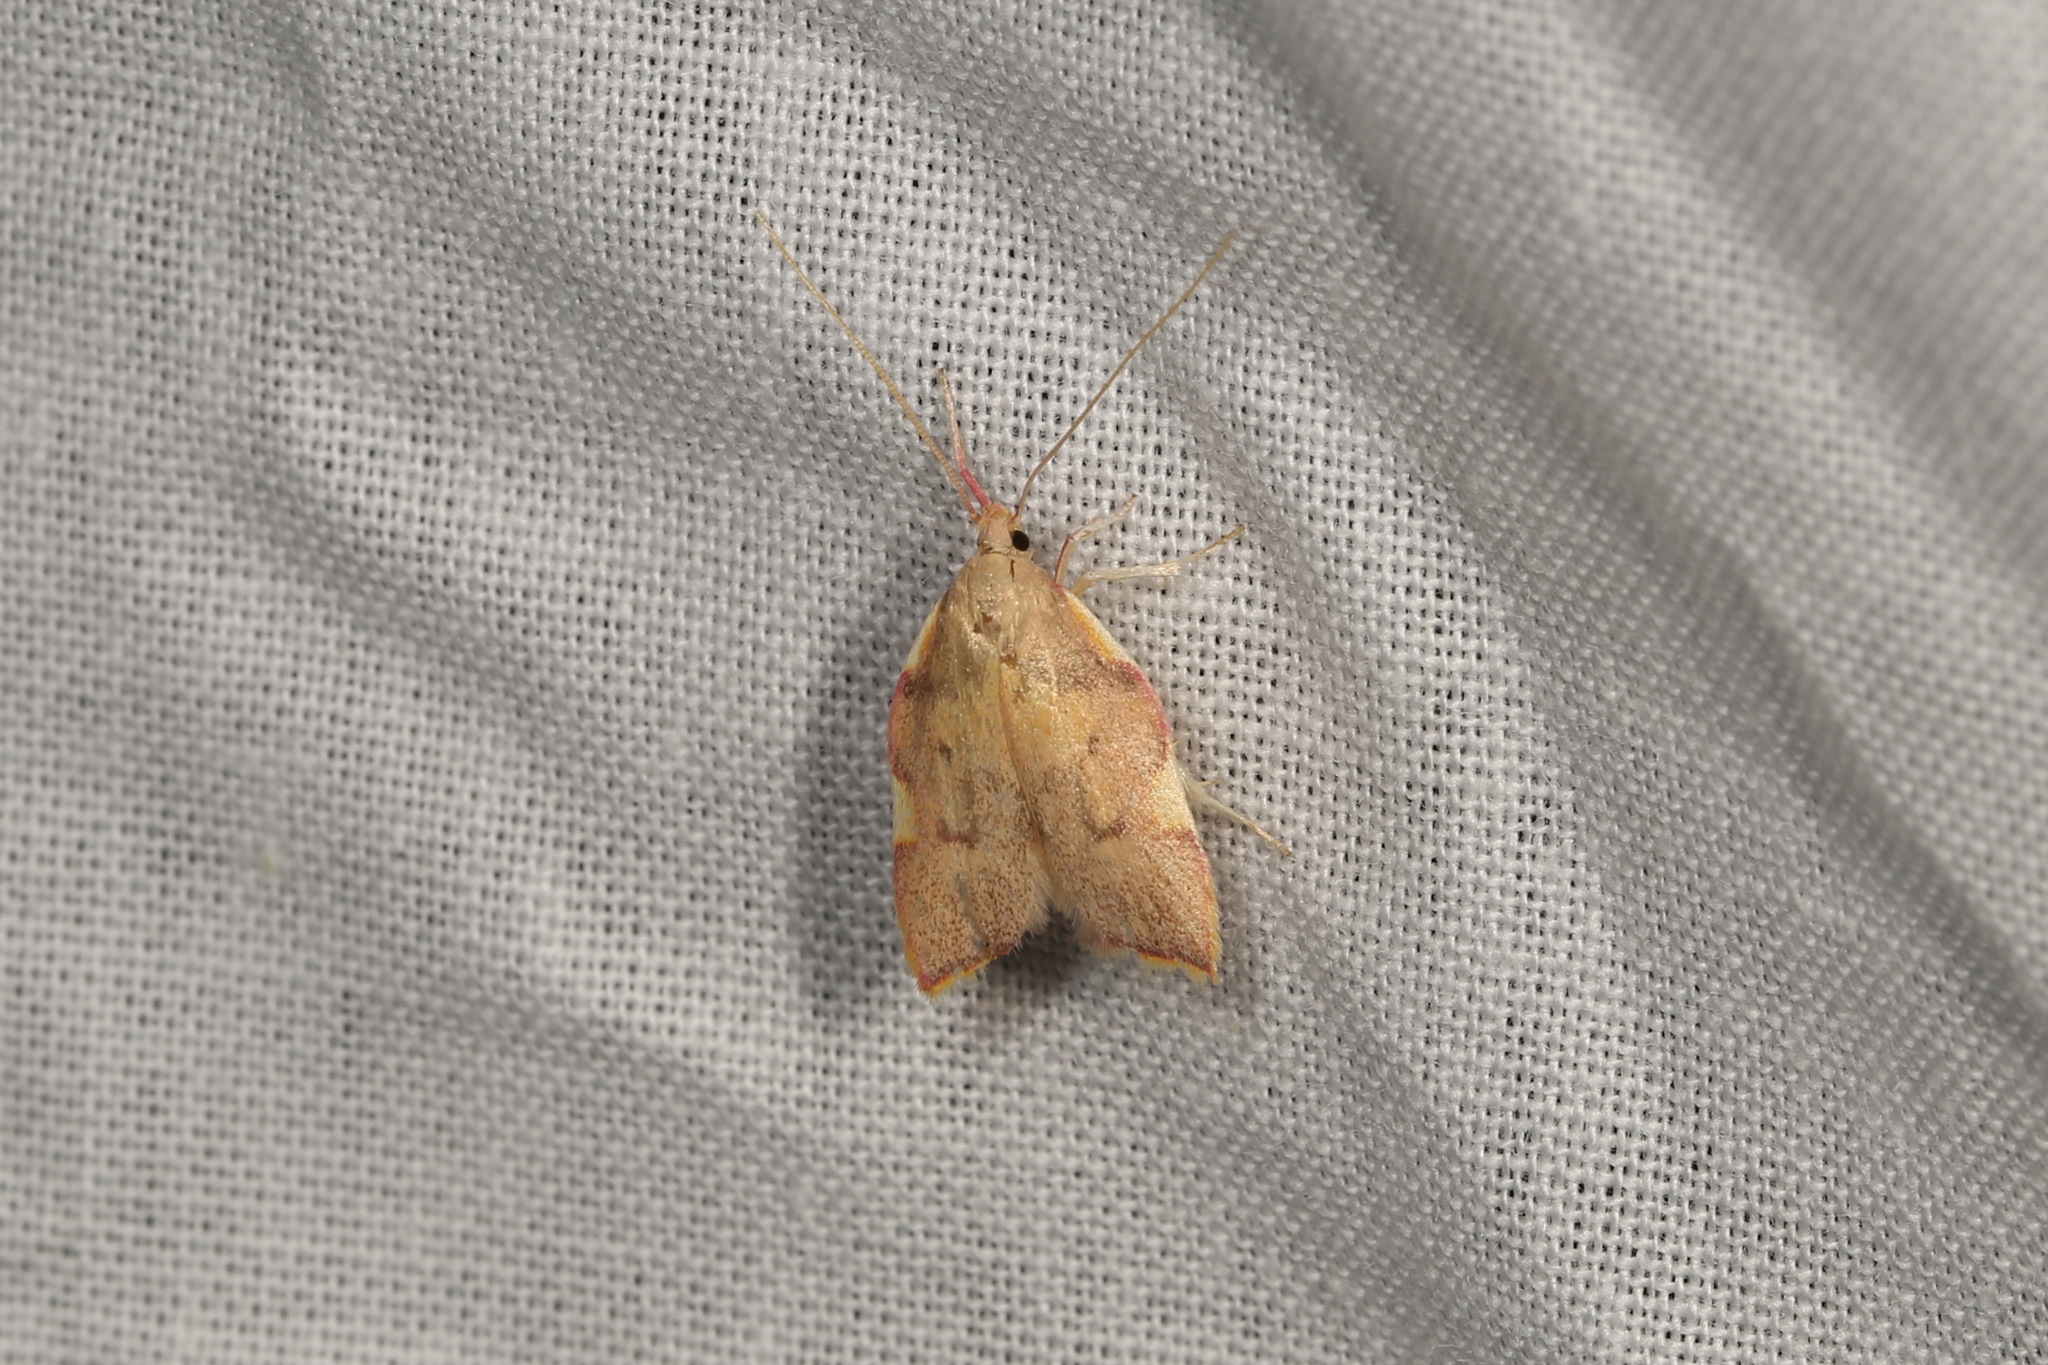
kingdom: Animalia
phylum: Arthropoda
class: Insecta
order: Lepidoptera
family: Peleopodidae
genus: Carcina
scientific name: Carcina quercana
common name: Moth
